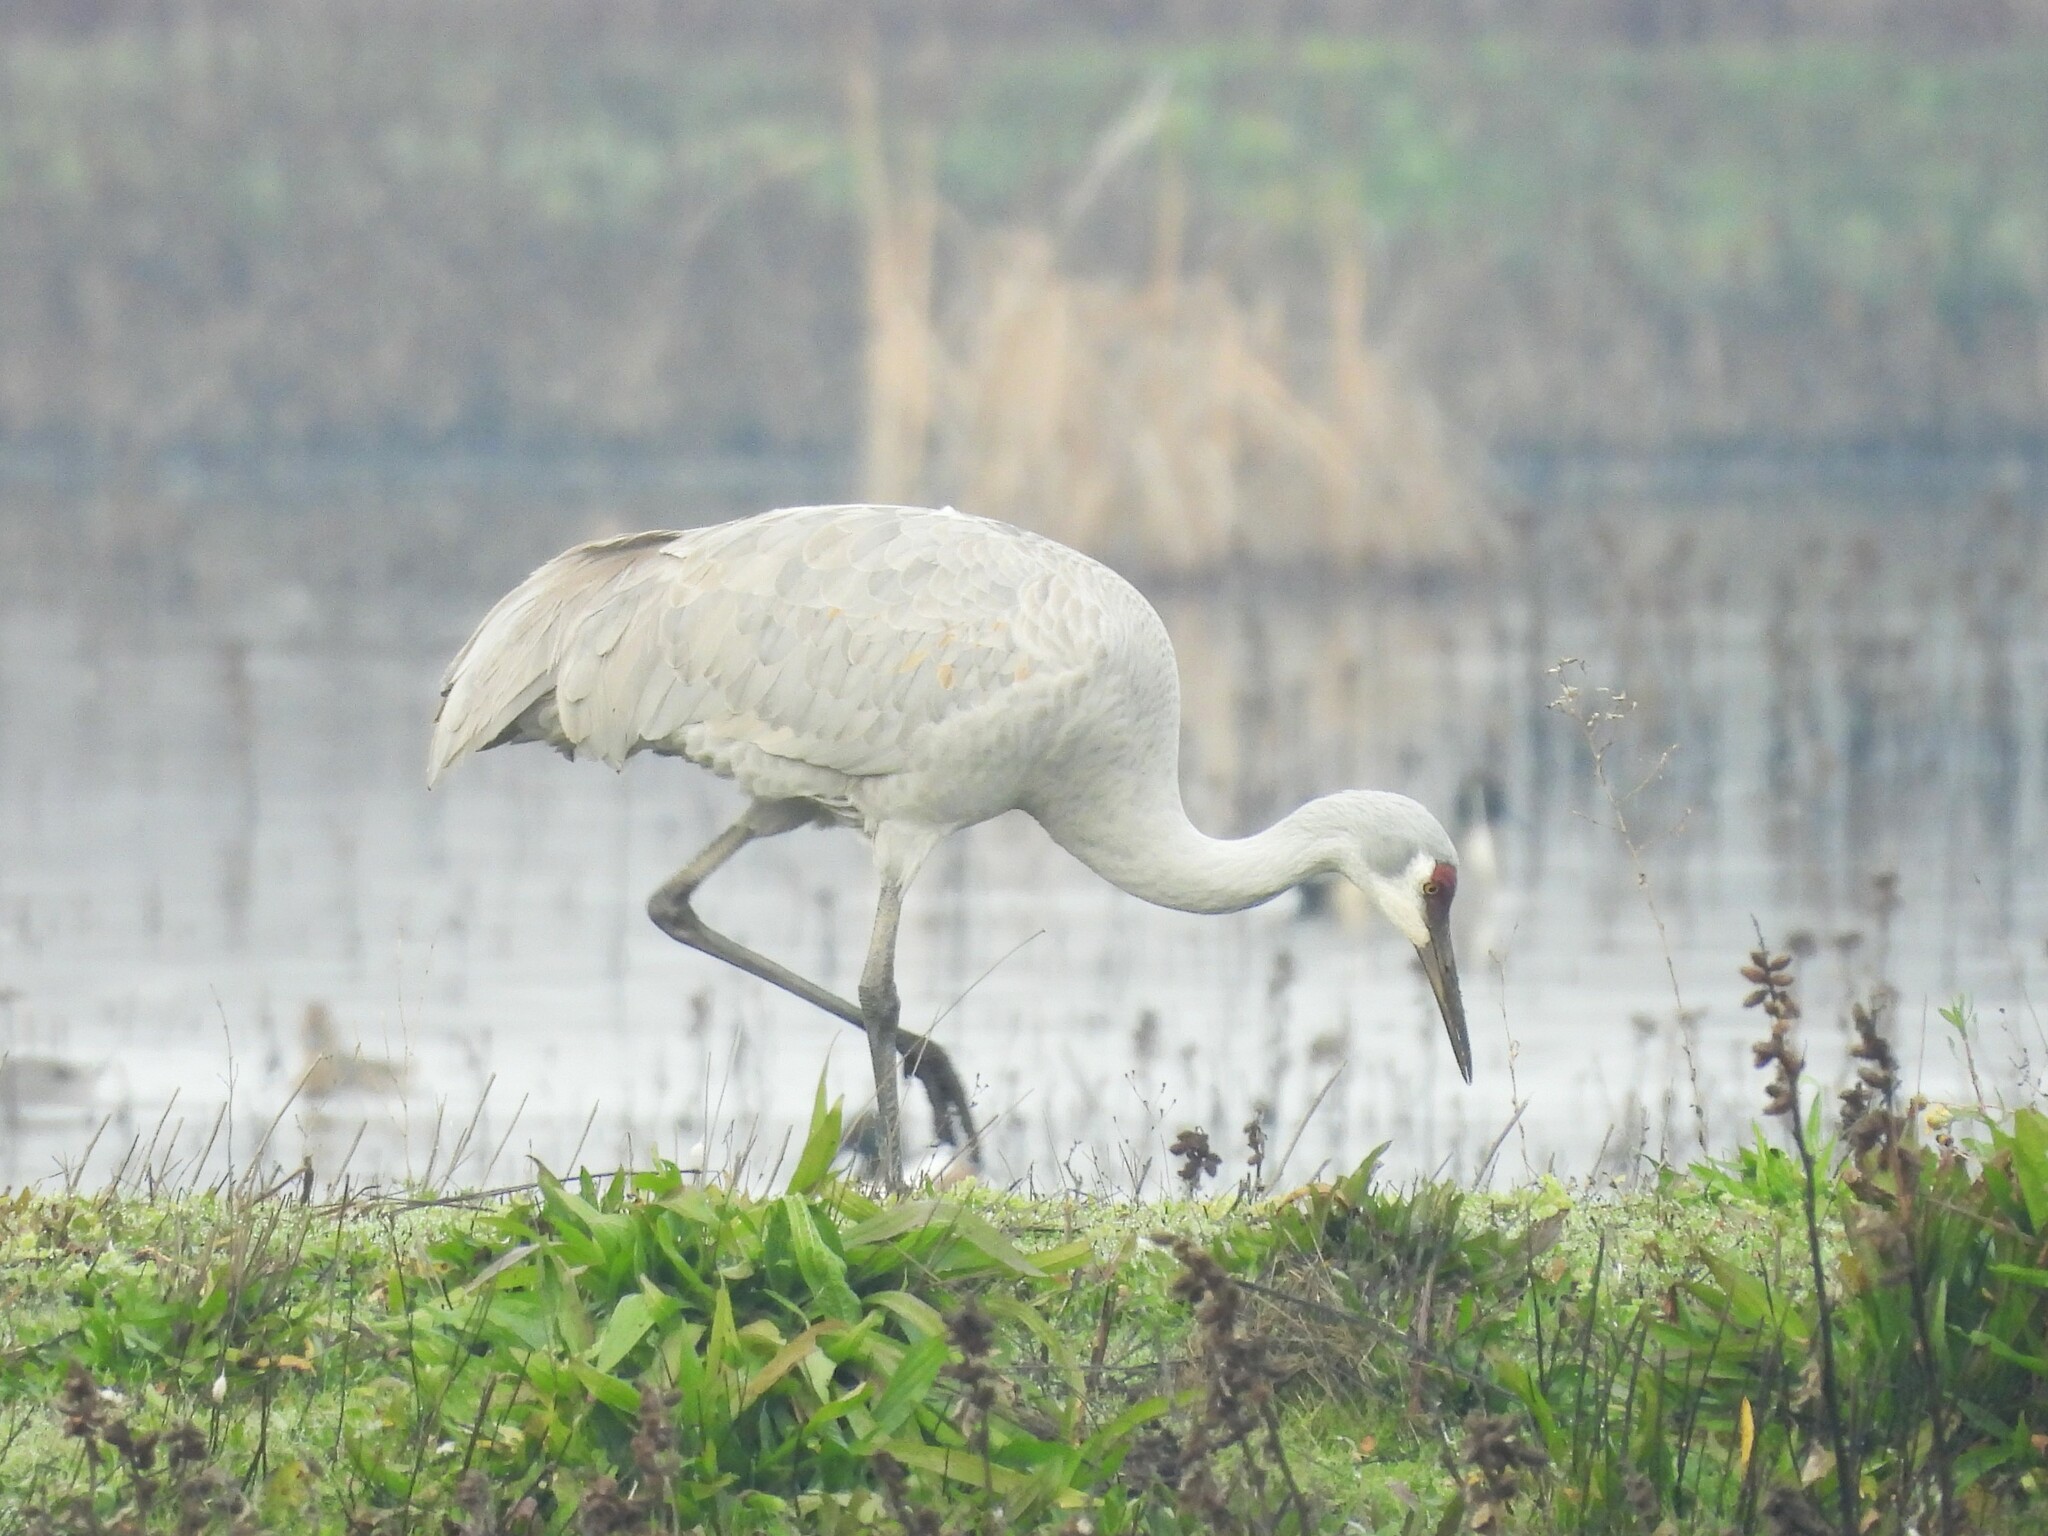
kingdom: Animalia
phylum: Chordata
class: Aves
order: Gruiformes
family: Gruidae
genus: Grus
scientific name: Grus canadensis
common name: Sandhill crane
